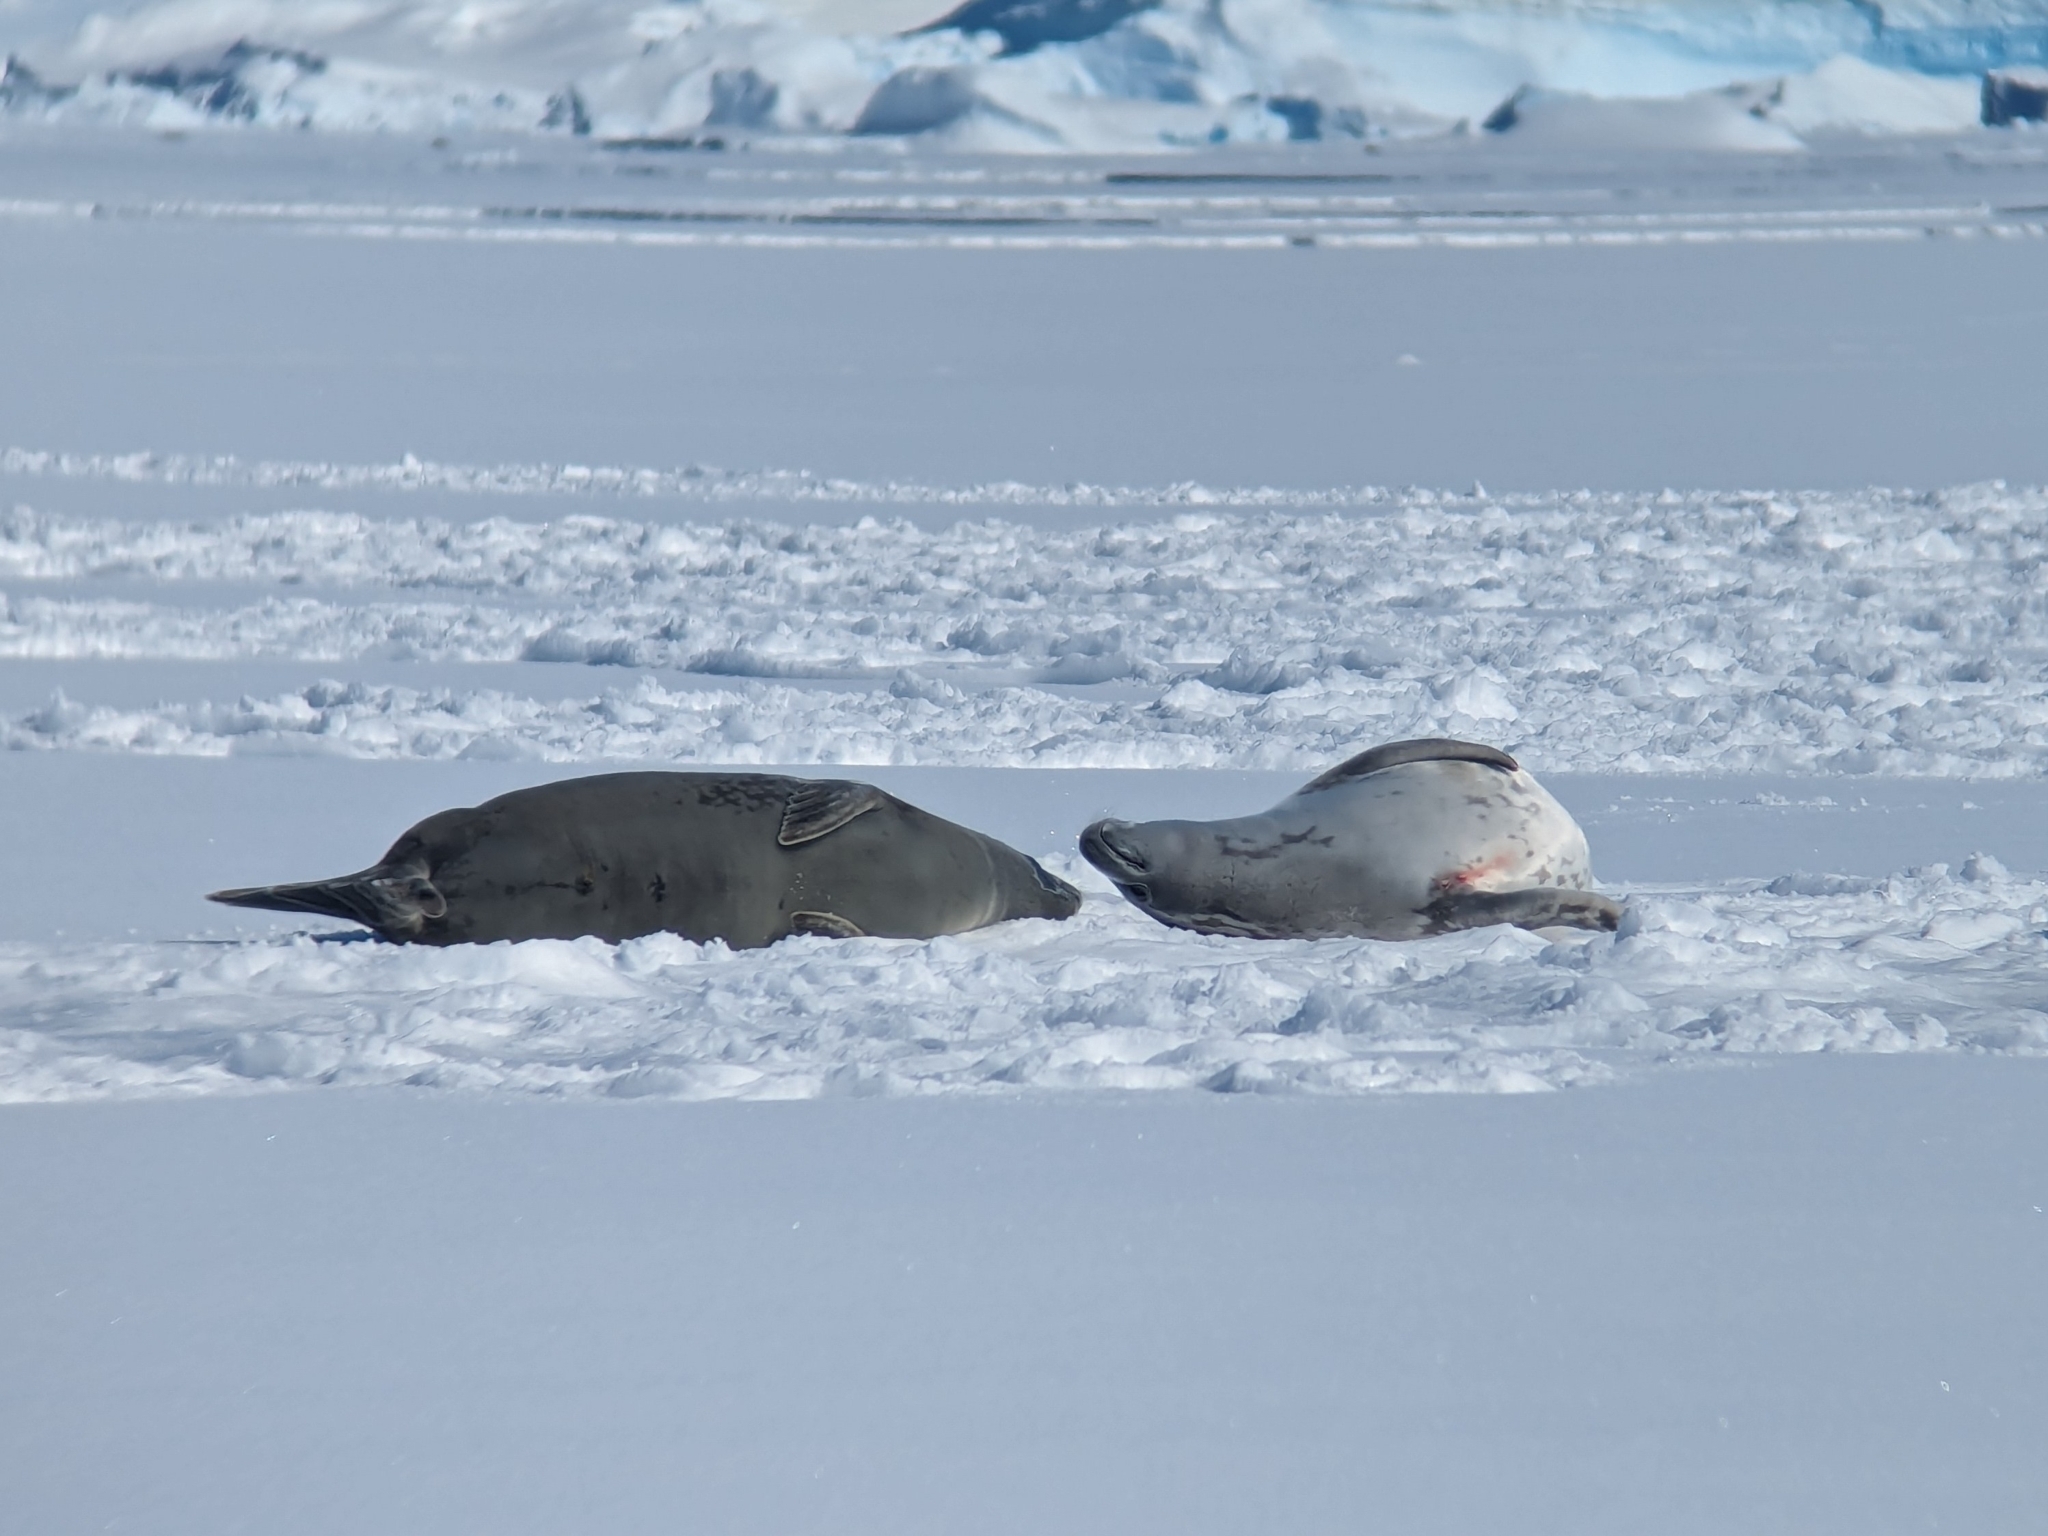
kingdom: Animalia
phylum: Chordata
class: Mammalia
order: Carnivora
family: Phocidae
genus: Lobodon
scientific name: Lobodon carcinophaga
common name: Crabeater seal
